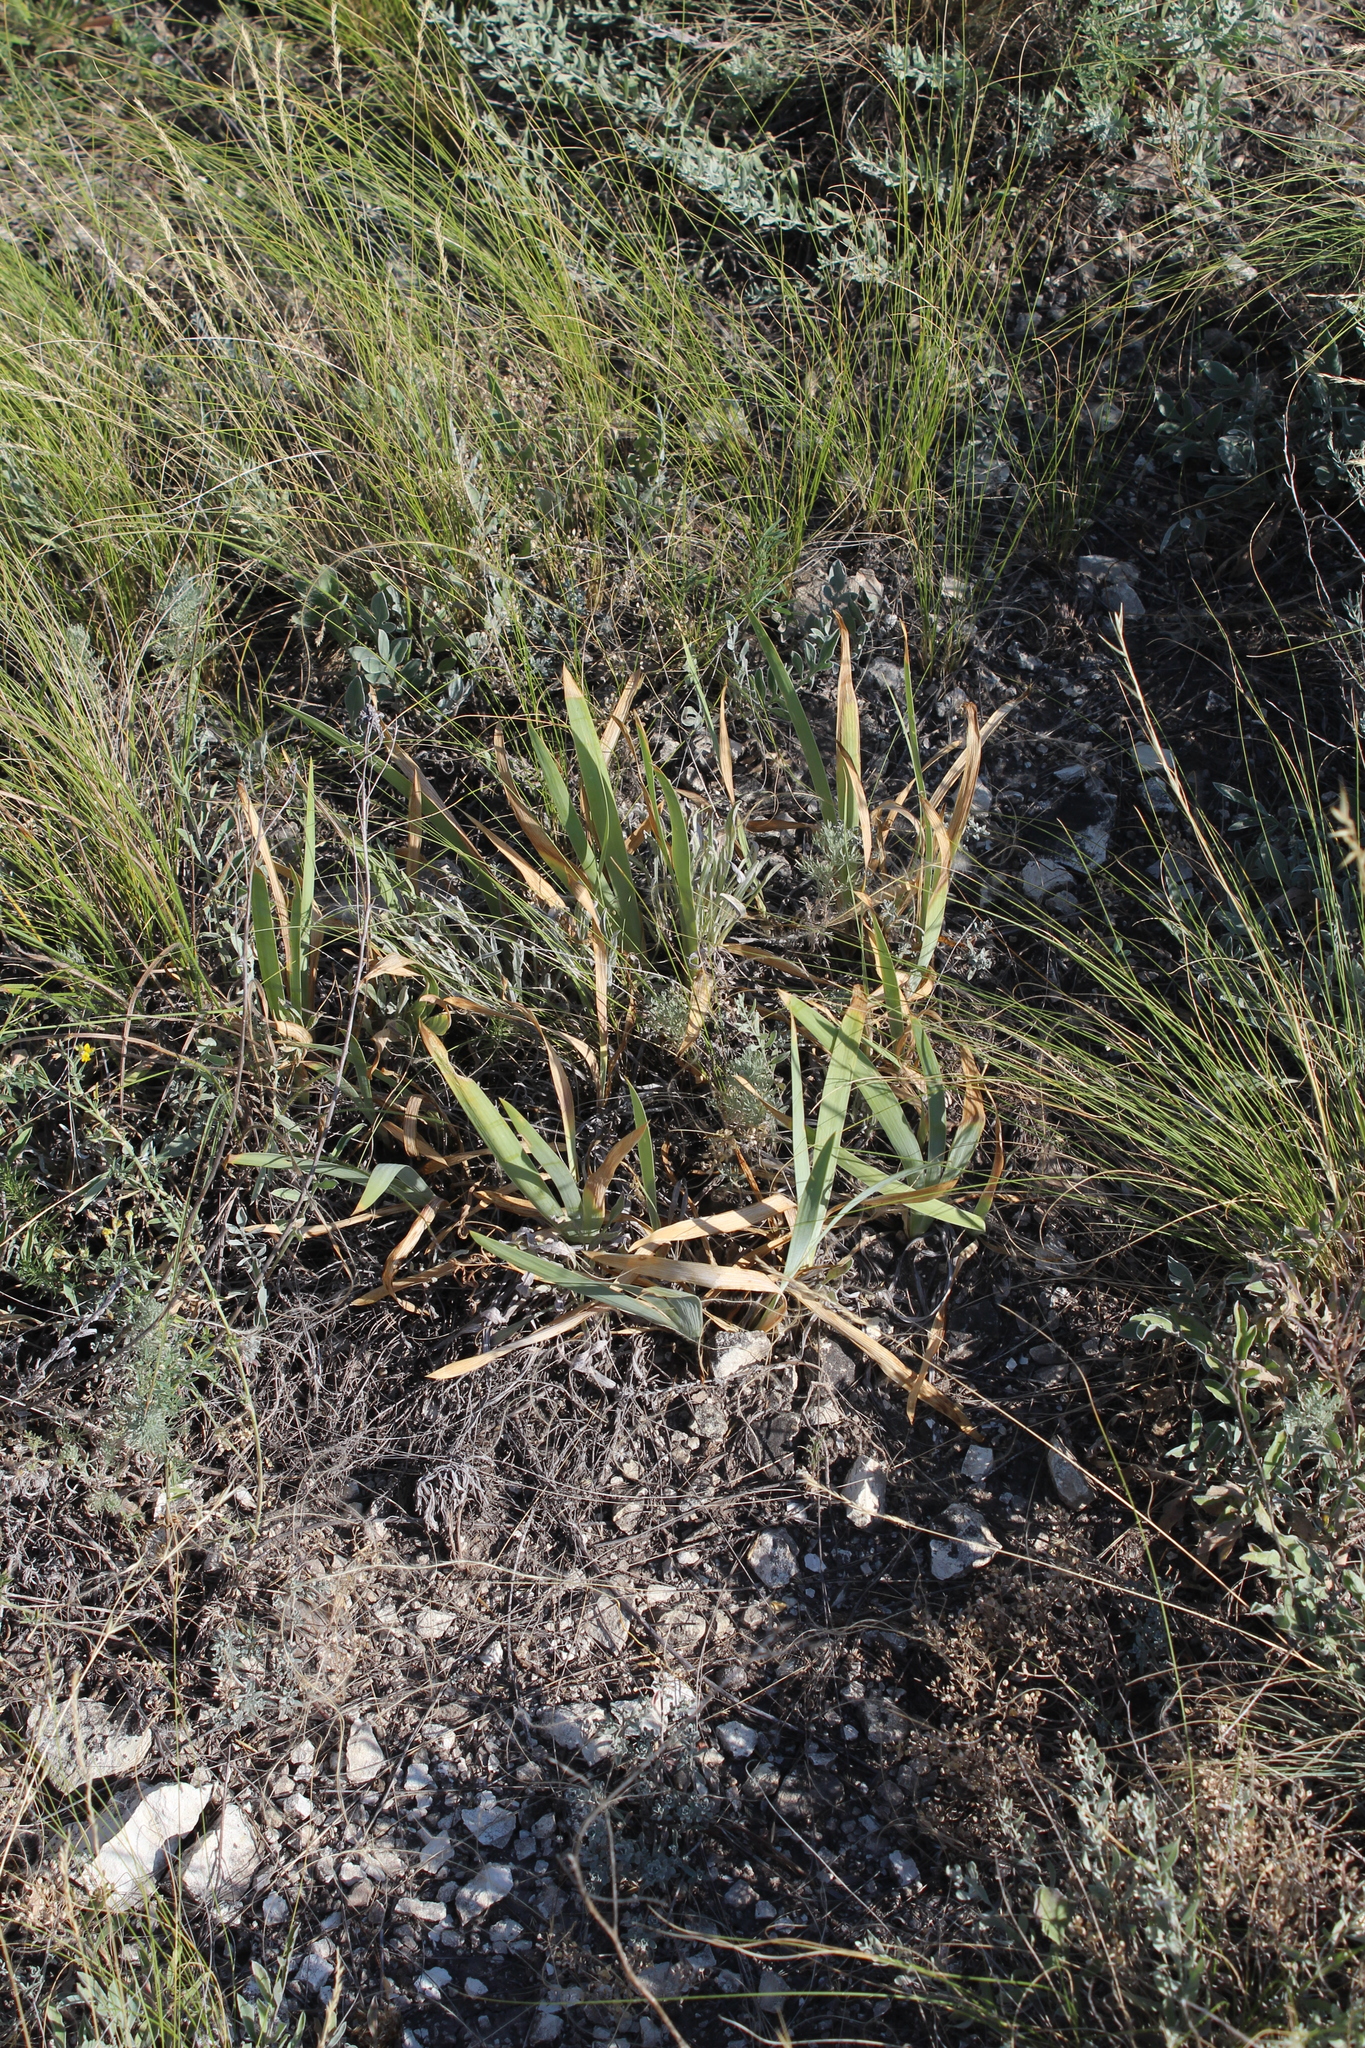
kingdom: Plantae
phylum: Tracheophyta
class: Liliopsida
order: Asparagales
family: Iridaceae
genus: Iris
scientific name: Iris pumila
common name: Dwarf iris
